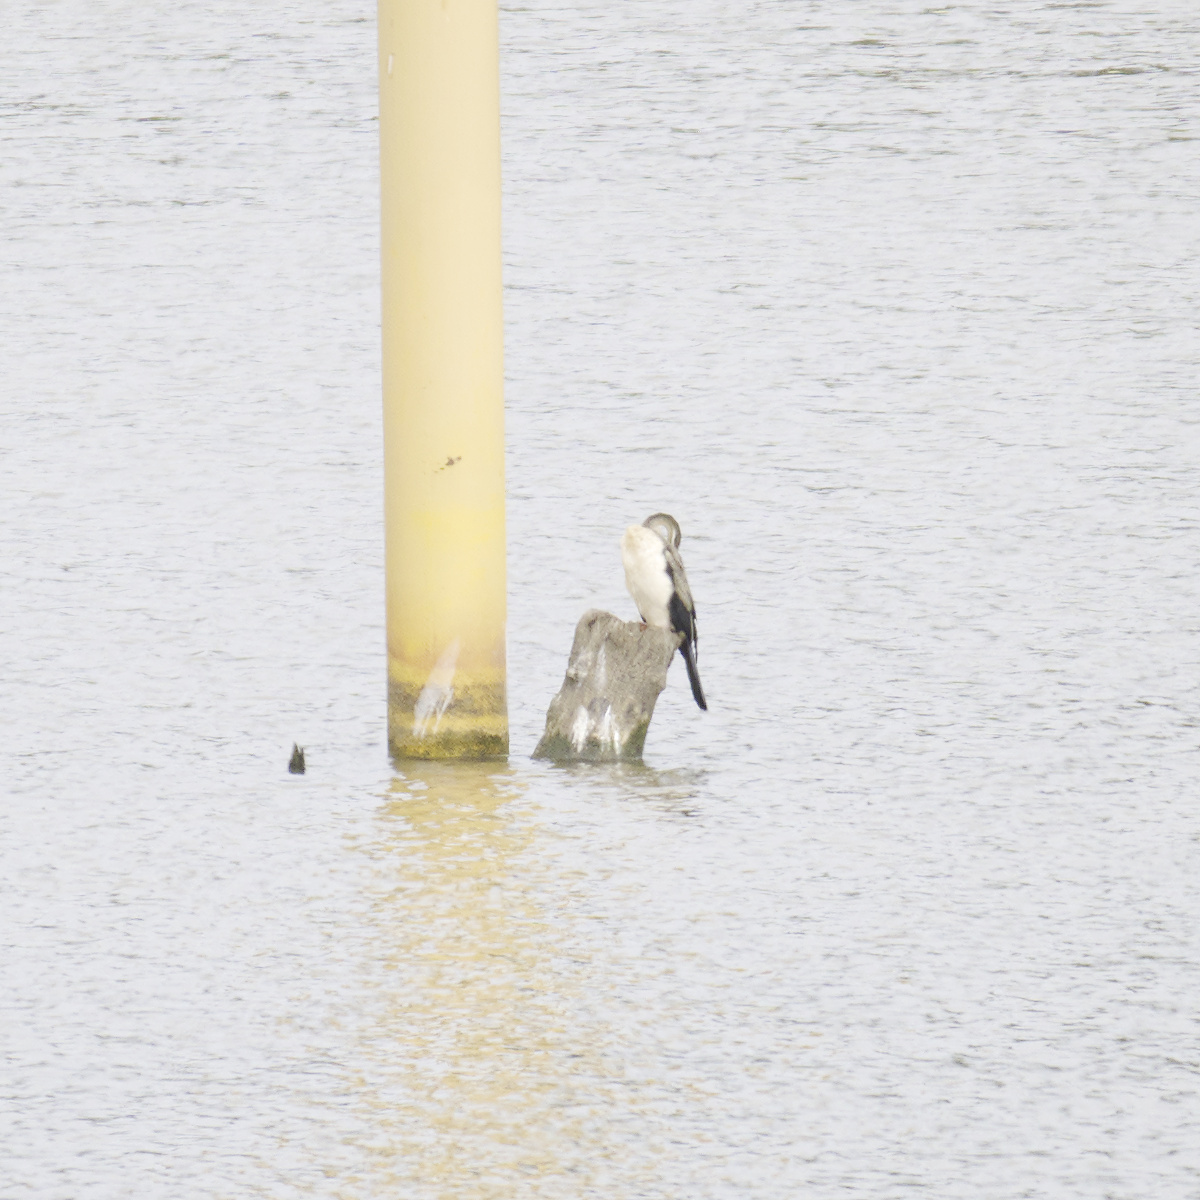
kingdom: Animalia
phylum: Chordata
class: Aves
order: Suliformes
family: Anhingidae
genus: Anhinga
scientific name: Anhinga novaehollandiae
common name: Australasian darter
